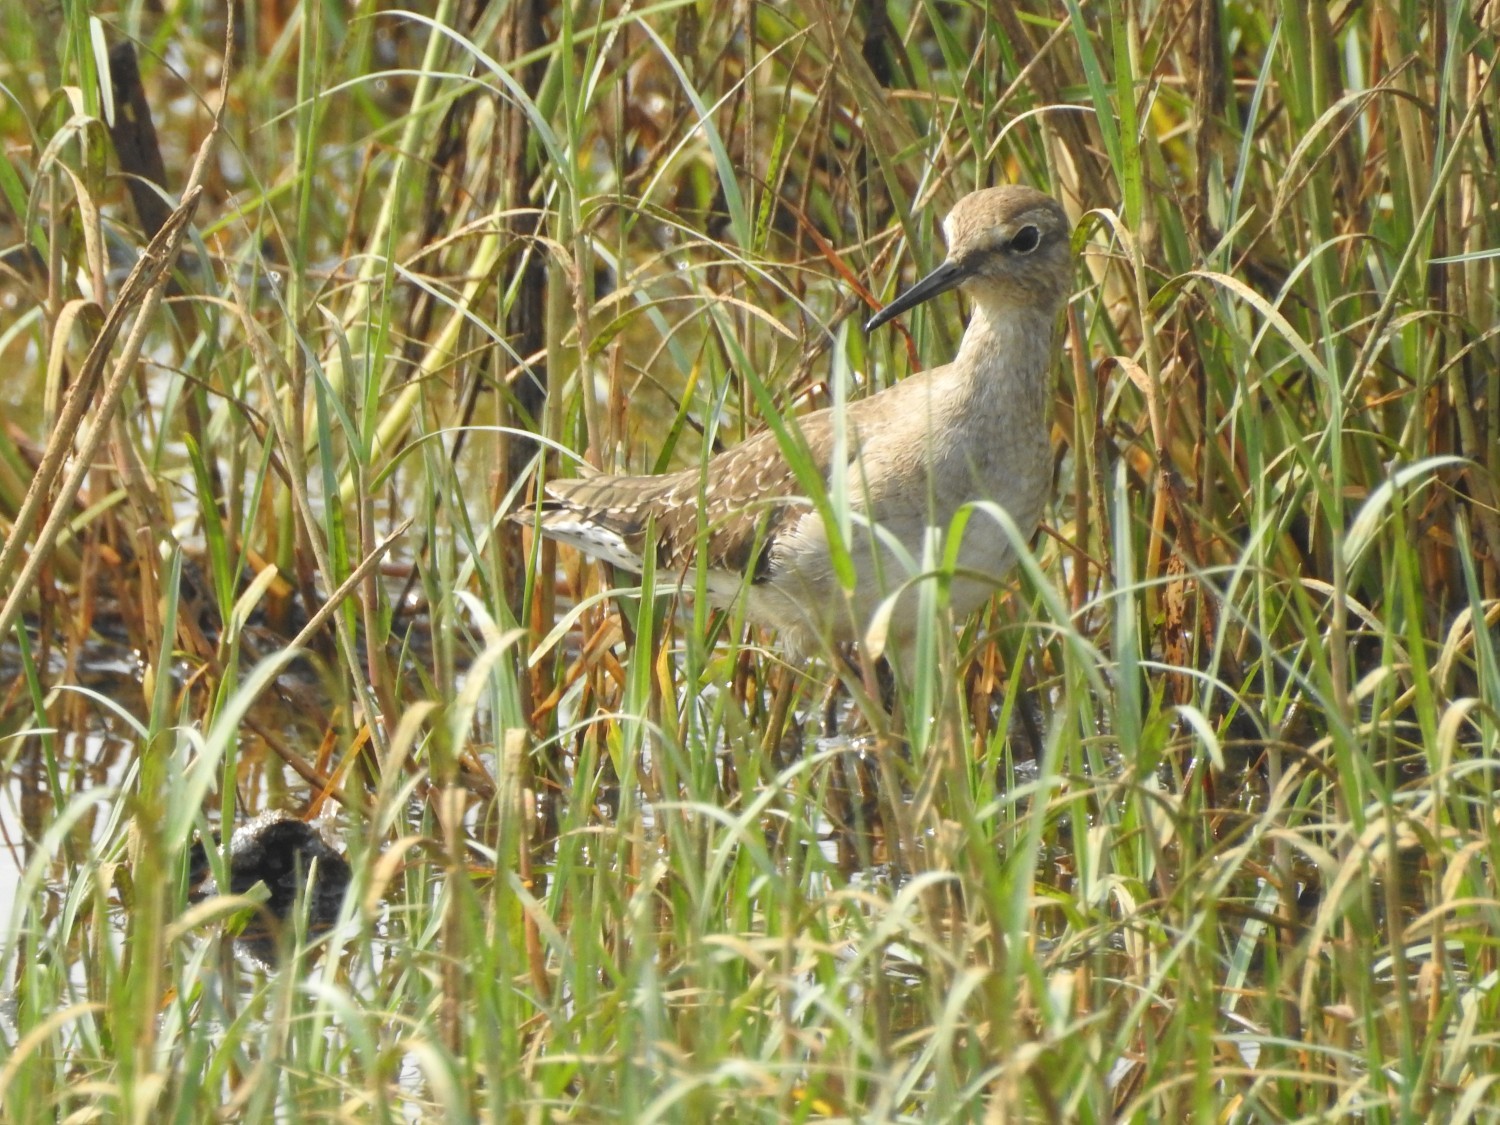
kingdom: Animalia
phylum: Chordata
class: Aves
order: Charadriiformes
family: Scolopacidae
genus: Tringa
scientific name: Tringa glareola
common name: Wood sandpiper
